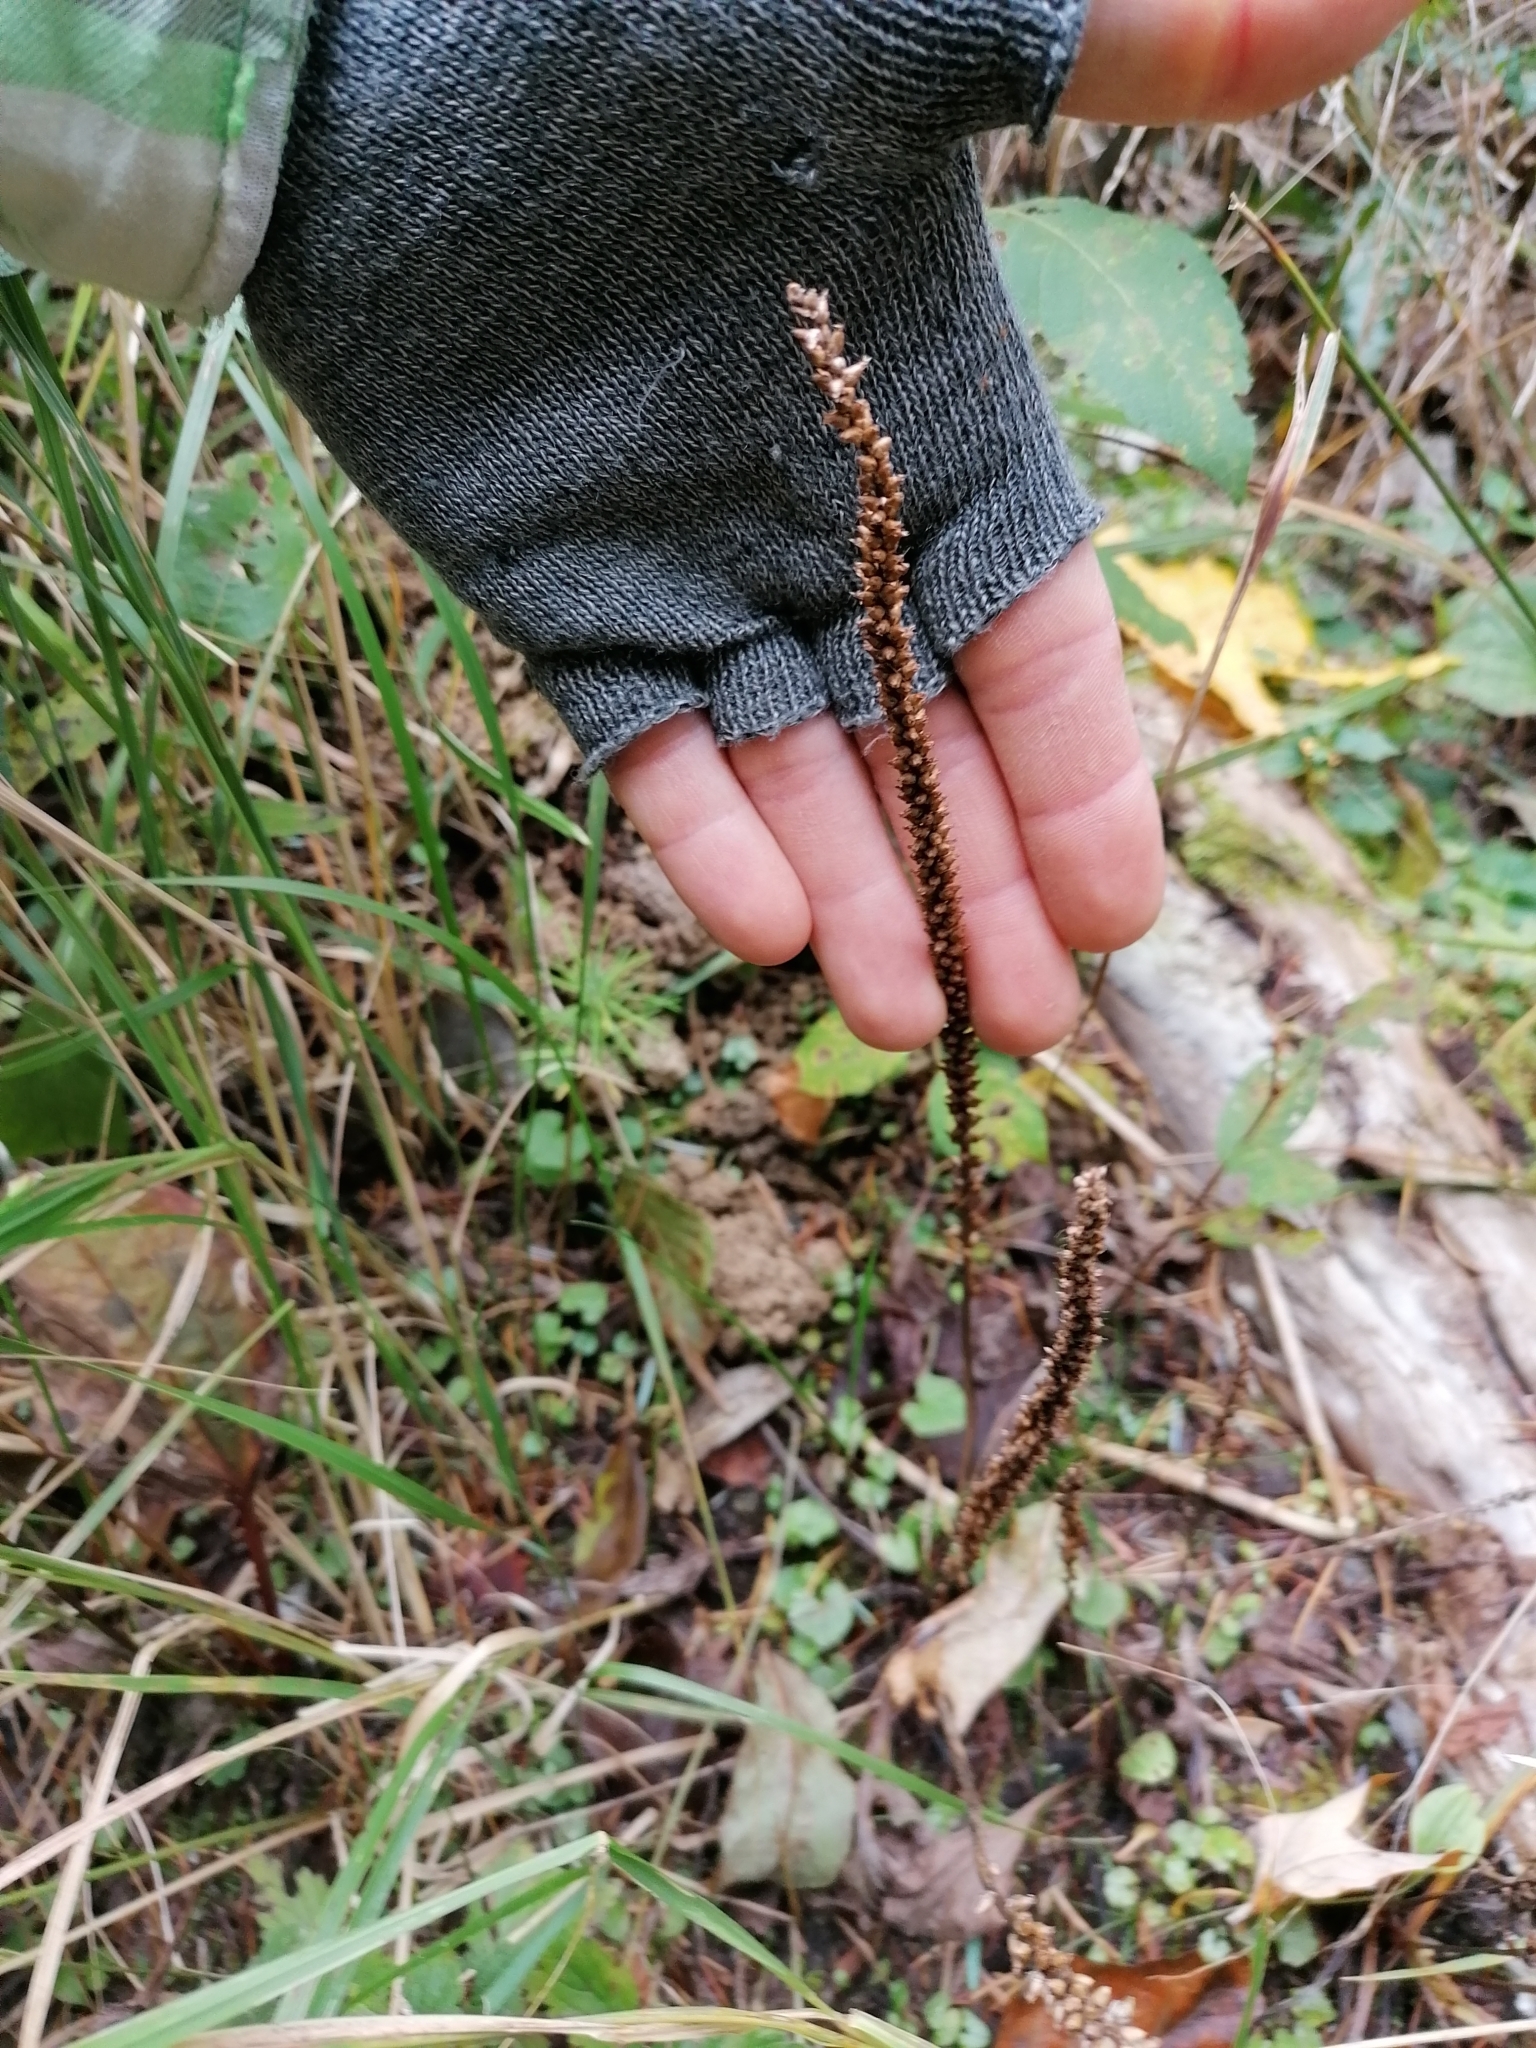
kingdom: Plantae
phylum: Tracheophyta
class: Magnoliopsida
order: Lamiales
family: Plantaginaceae
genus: Plantago
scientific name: Plantago major
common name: Common plantain
